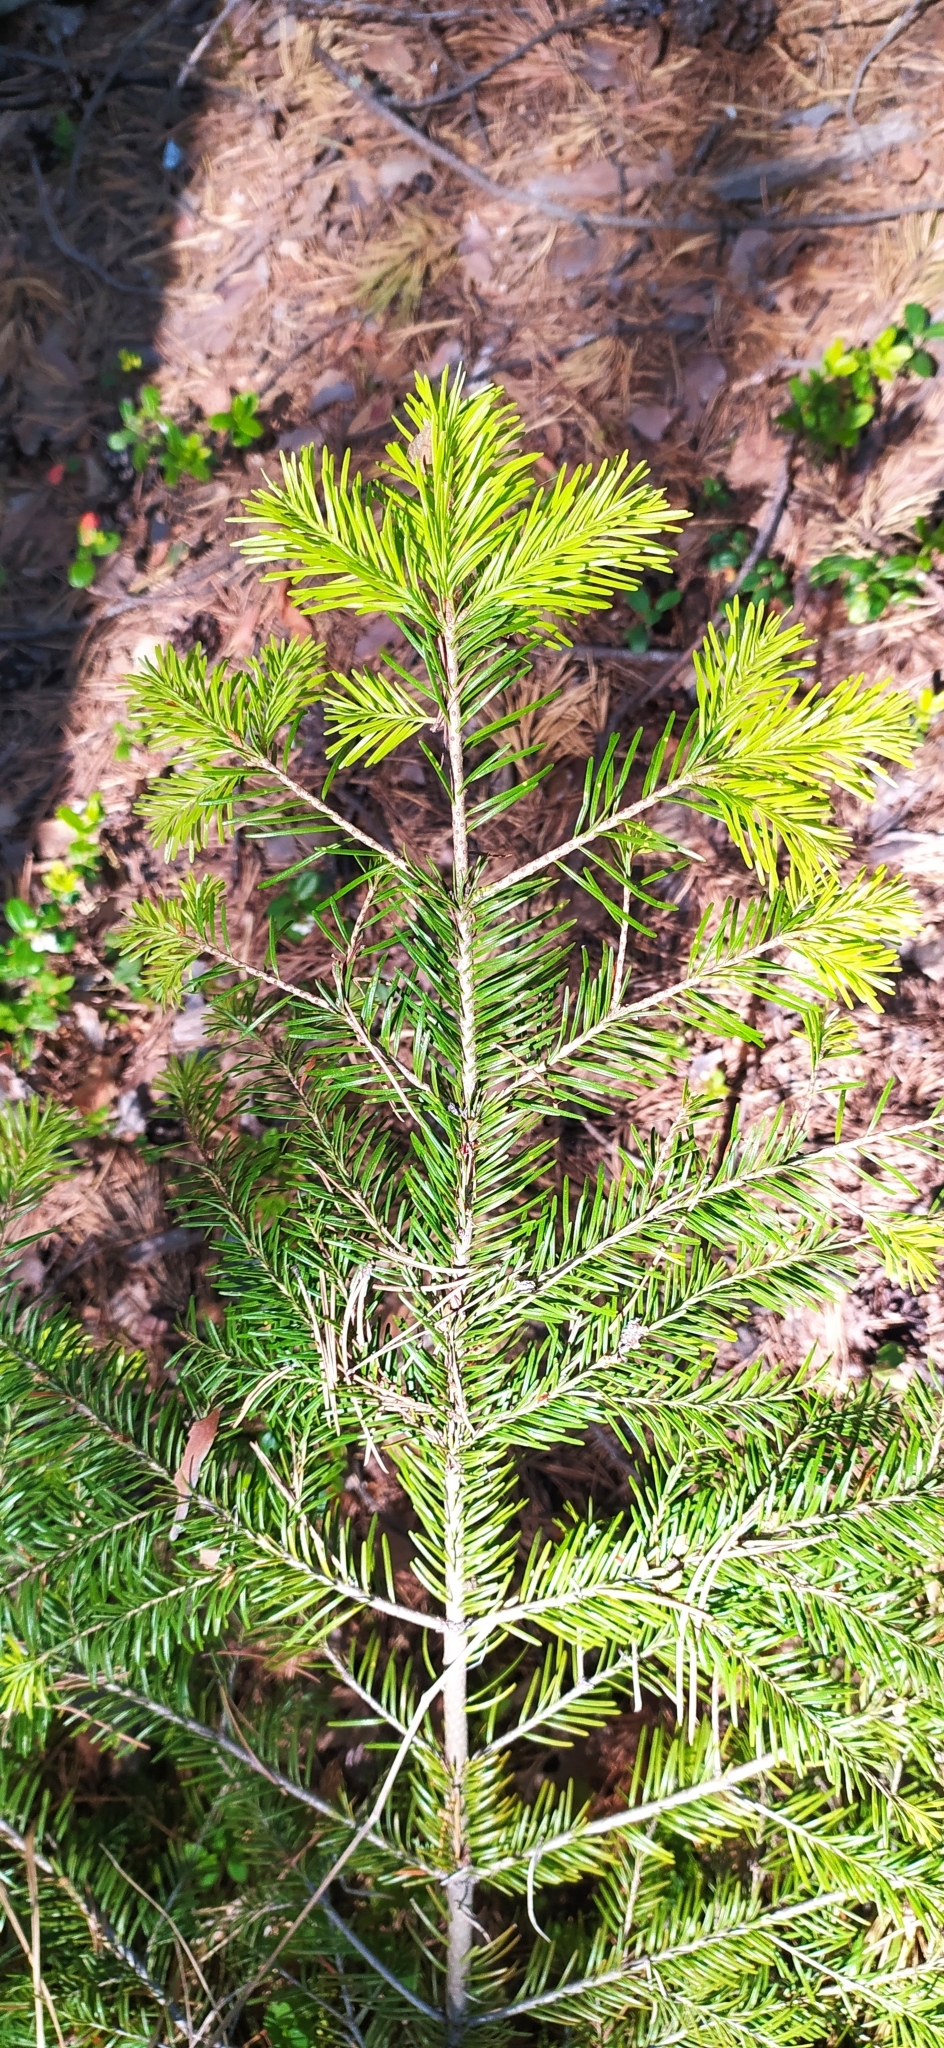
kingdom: Plantae
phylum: Tracheophyta
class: Pinopsida
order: Pinales
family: Pinaceae
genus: Abies
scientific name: Abies sibirica
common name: Siberian fir
